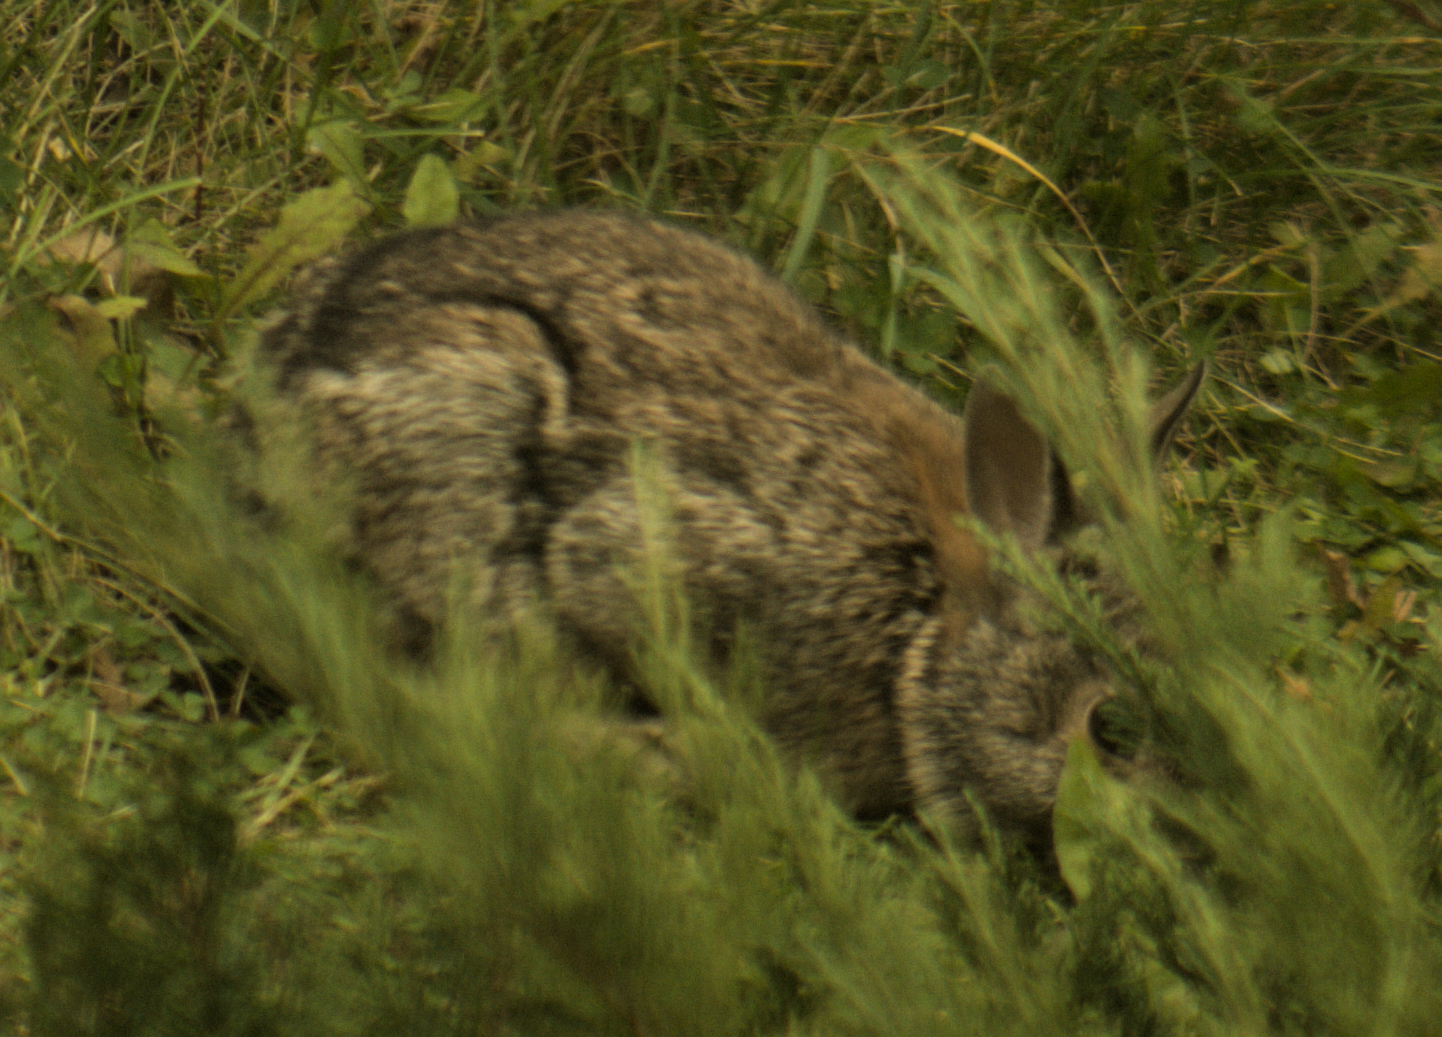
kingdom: Animalia
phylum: Chordata
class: Mammalia
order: Lagomorpha
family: Leporidae
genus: Sylvilagus
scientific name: Sylvilagus floridanus
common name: Eastern cottontail
